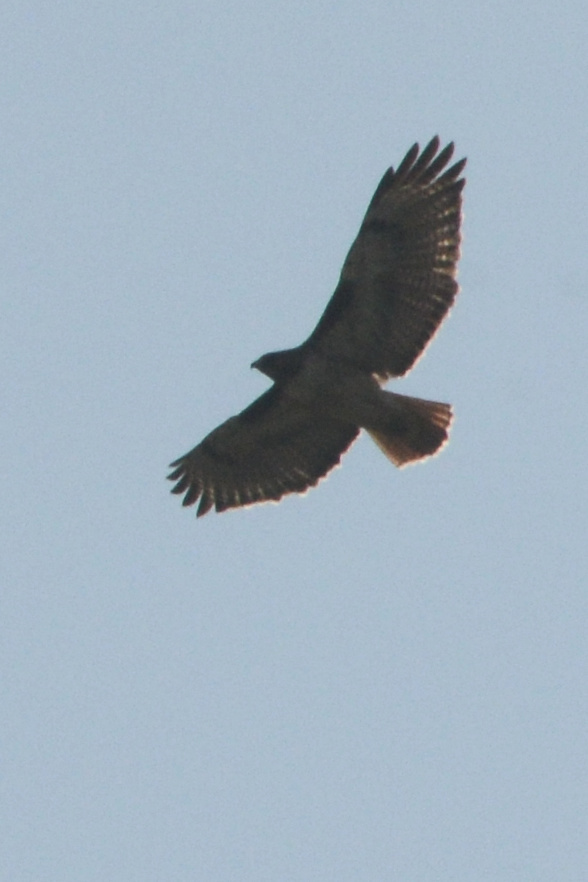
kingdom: Animalia
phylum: Chordata
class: Aves
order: Accipitriformes
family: Accipitridae
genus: Buteo
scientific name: Buteo jamaicensis
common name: Red-tailed hawk
